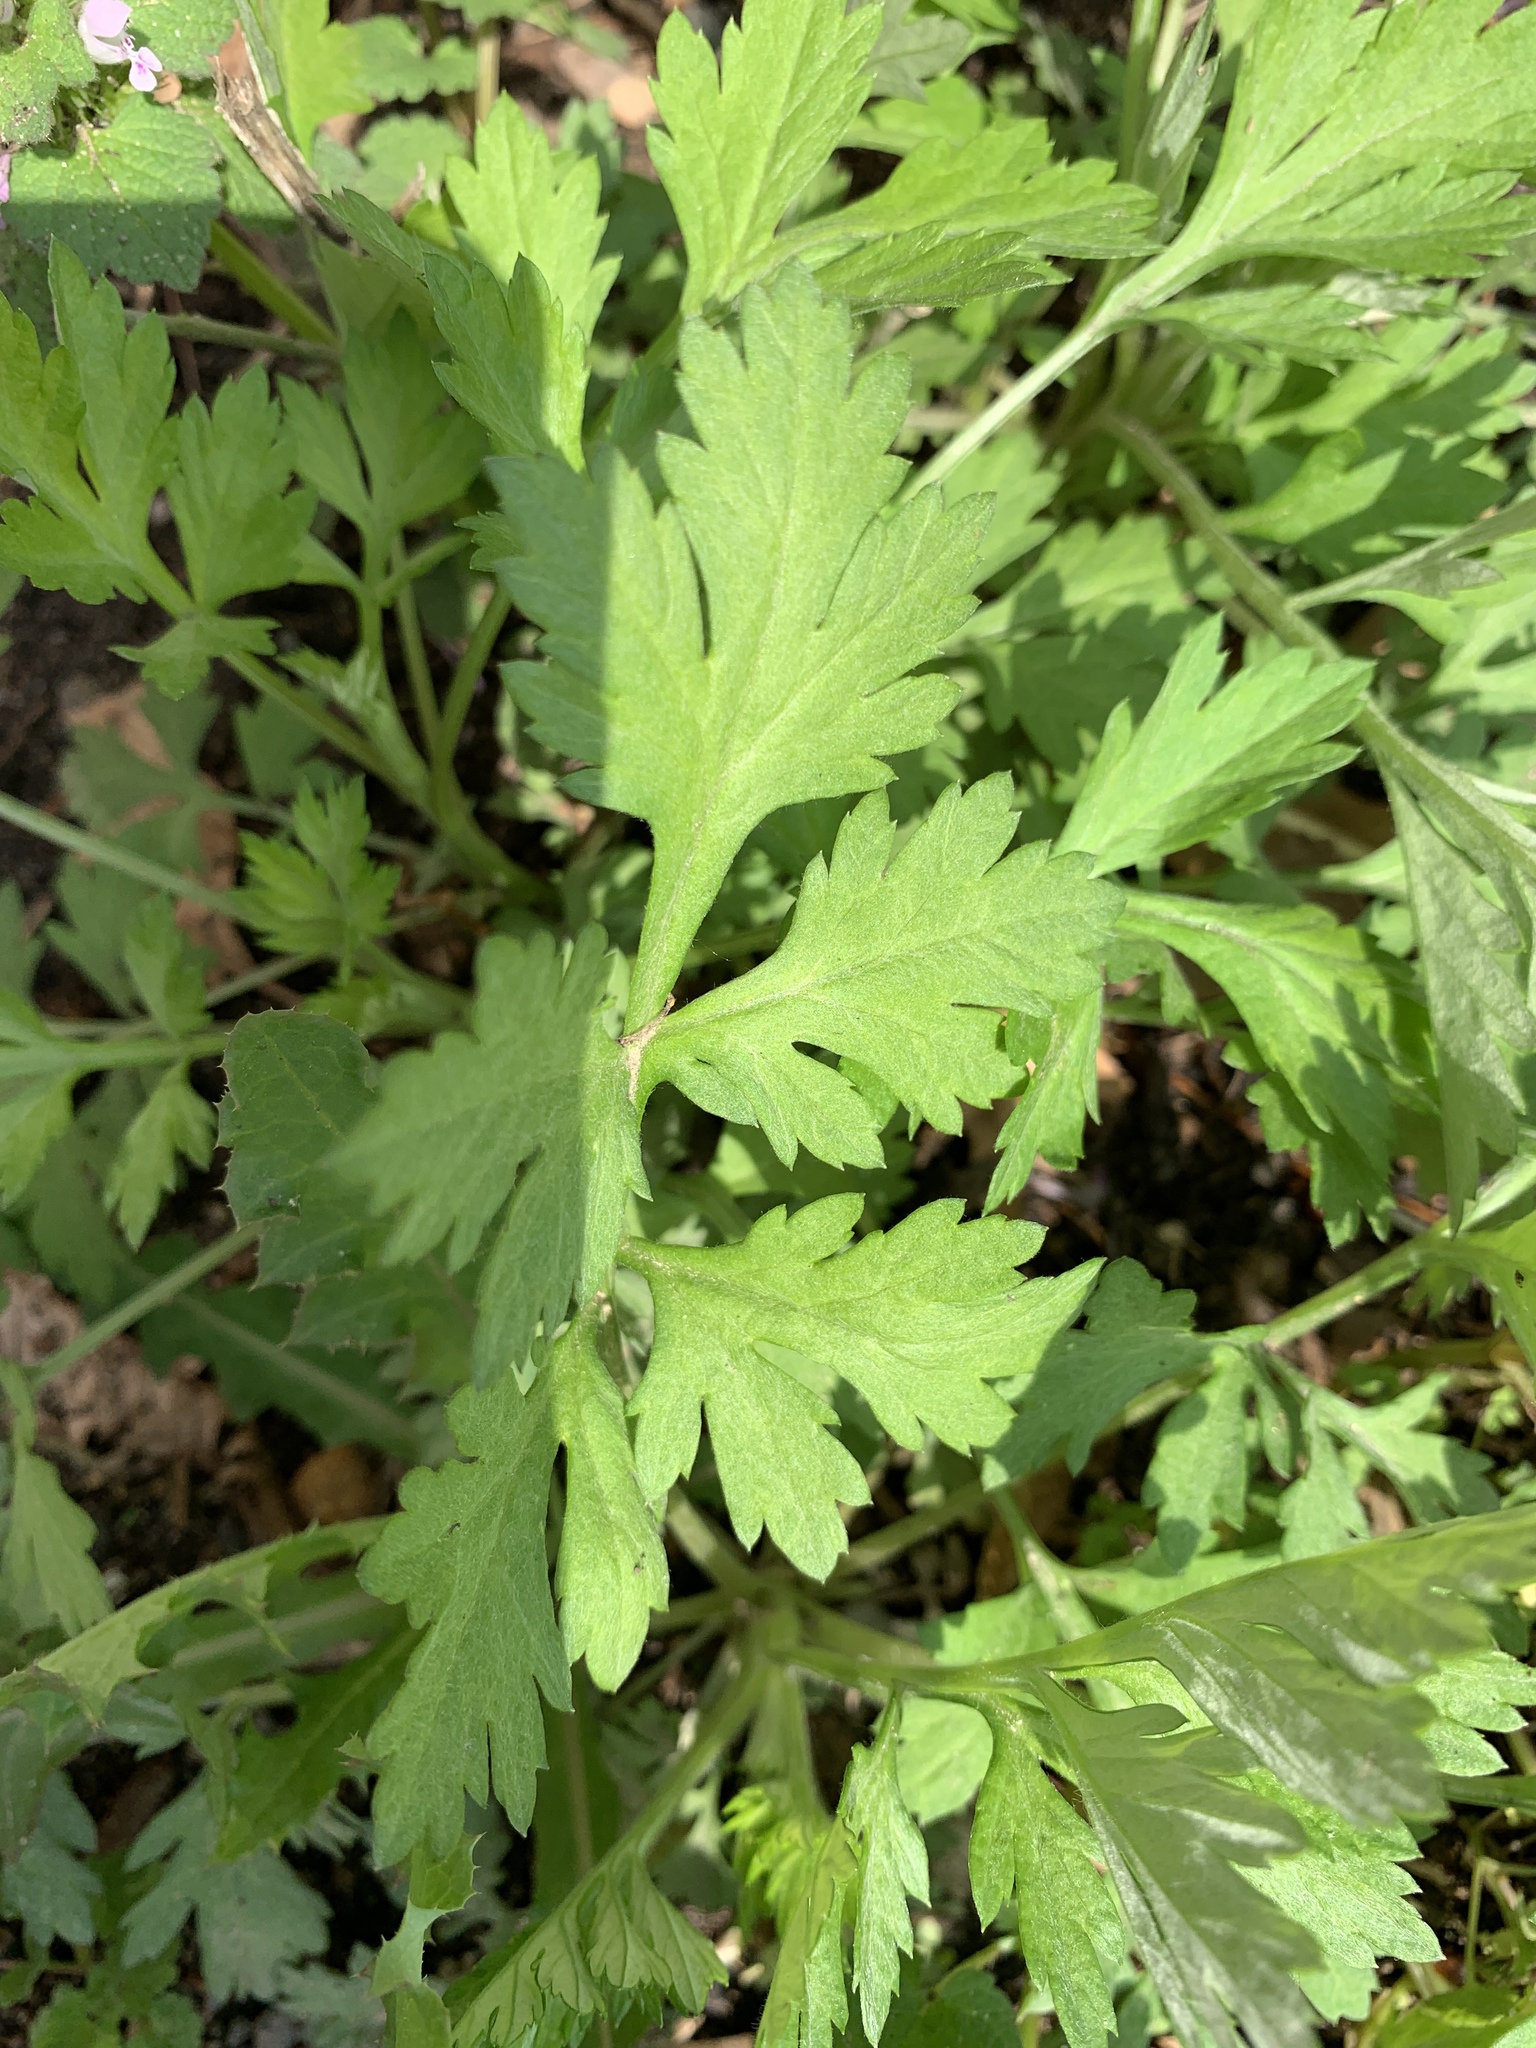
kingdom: Plantae
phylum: Tracheophyta
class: Magnoliopsida
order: Asterales
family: Asteraceae
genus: Artemisia
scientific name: Artemisia vulgaris
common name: Mugwort
